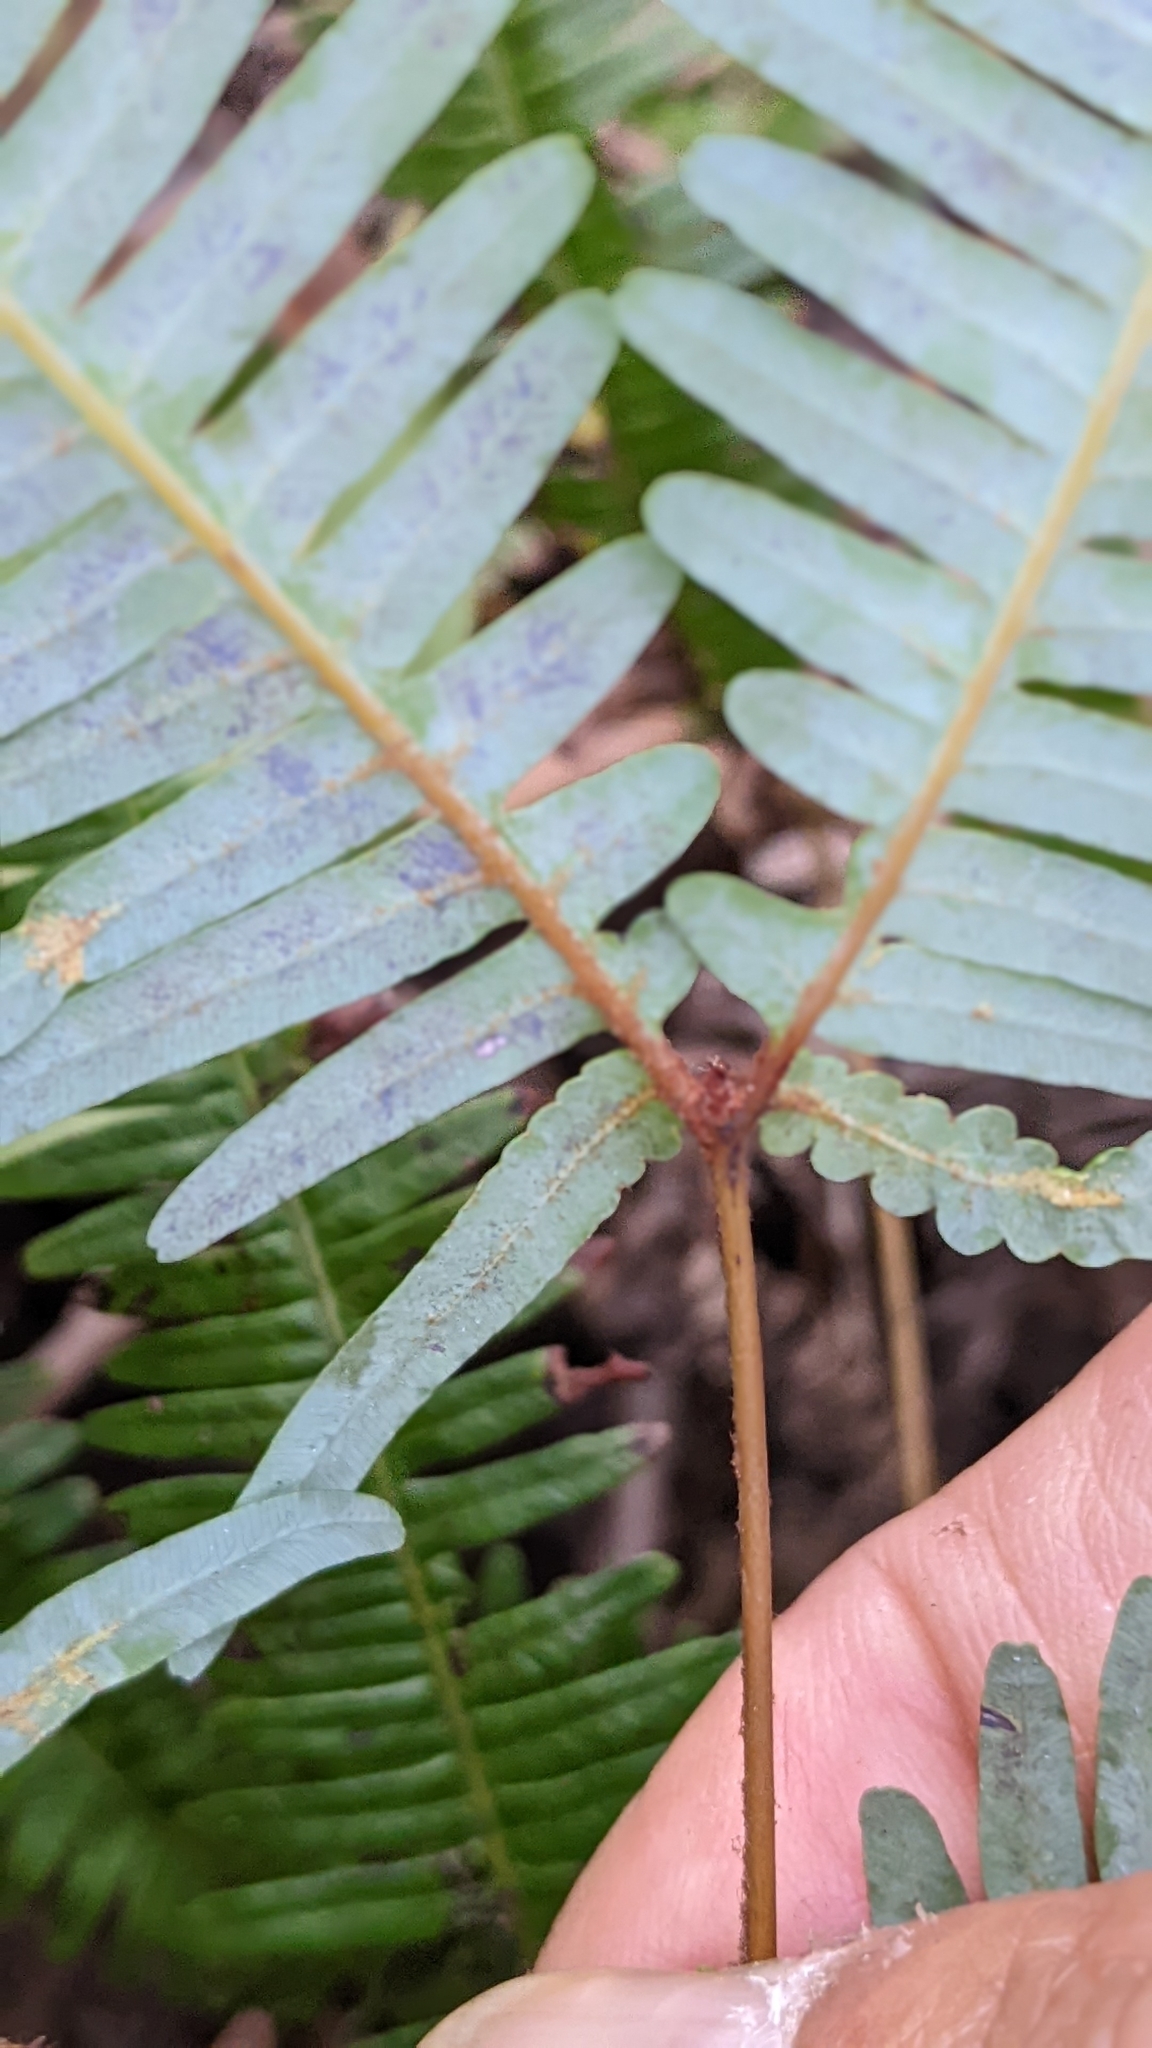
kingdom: Plantae
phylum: Tracheophyta
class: Polypodiopsida
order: Gleicheniales
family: Gleicheniaceae
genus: Dicranopteris
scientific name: Dicranopteris linearis
